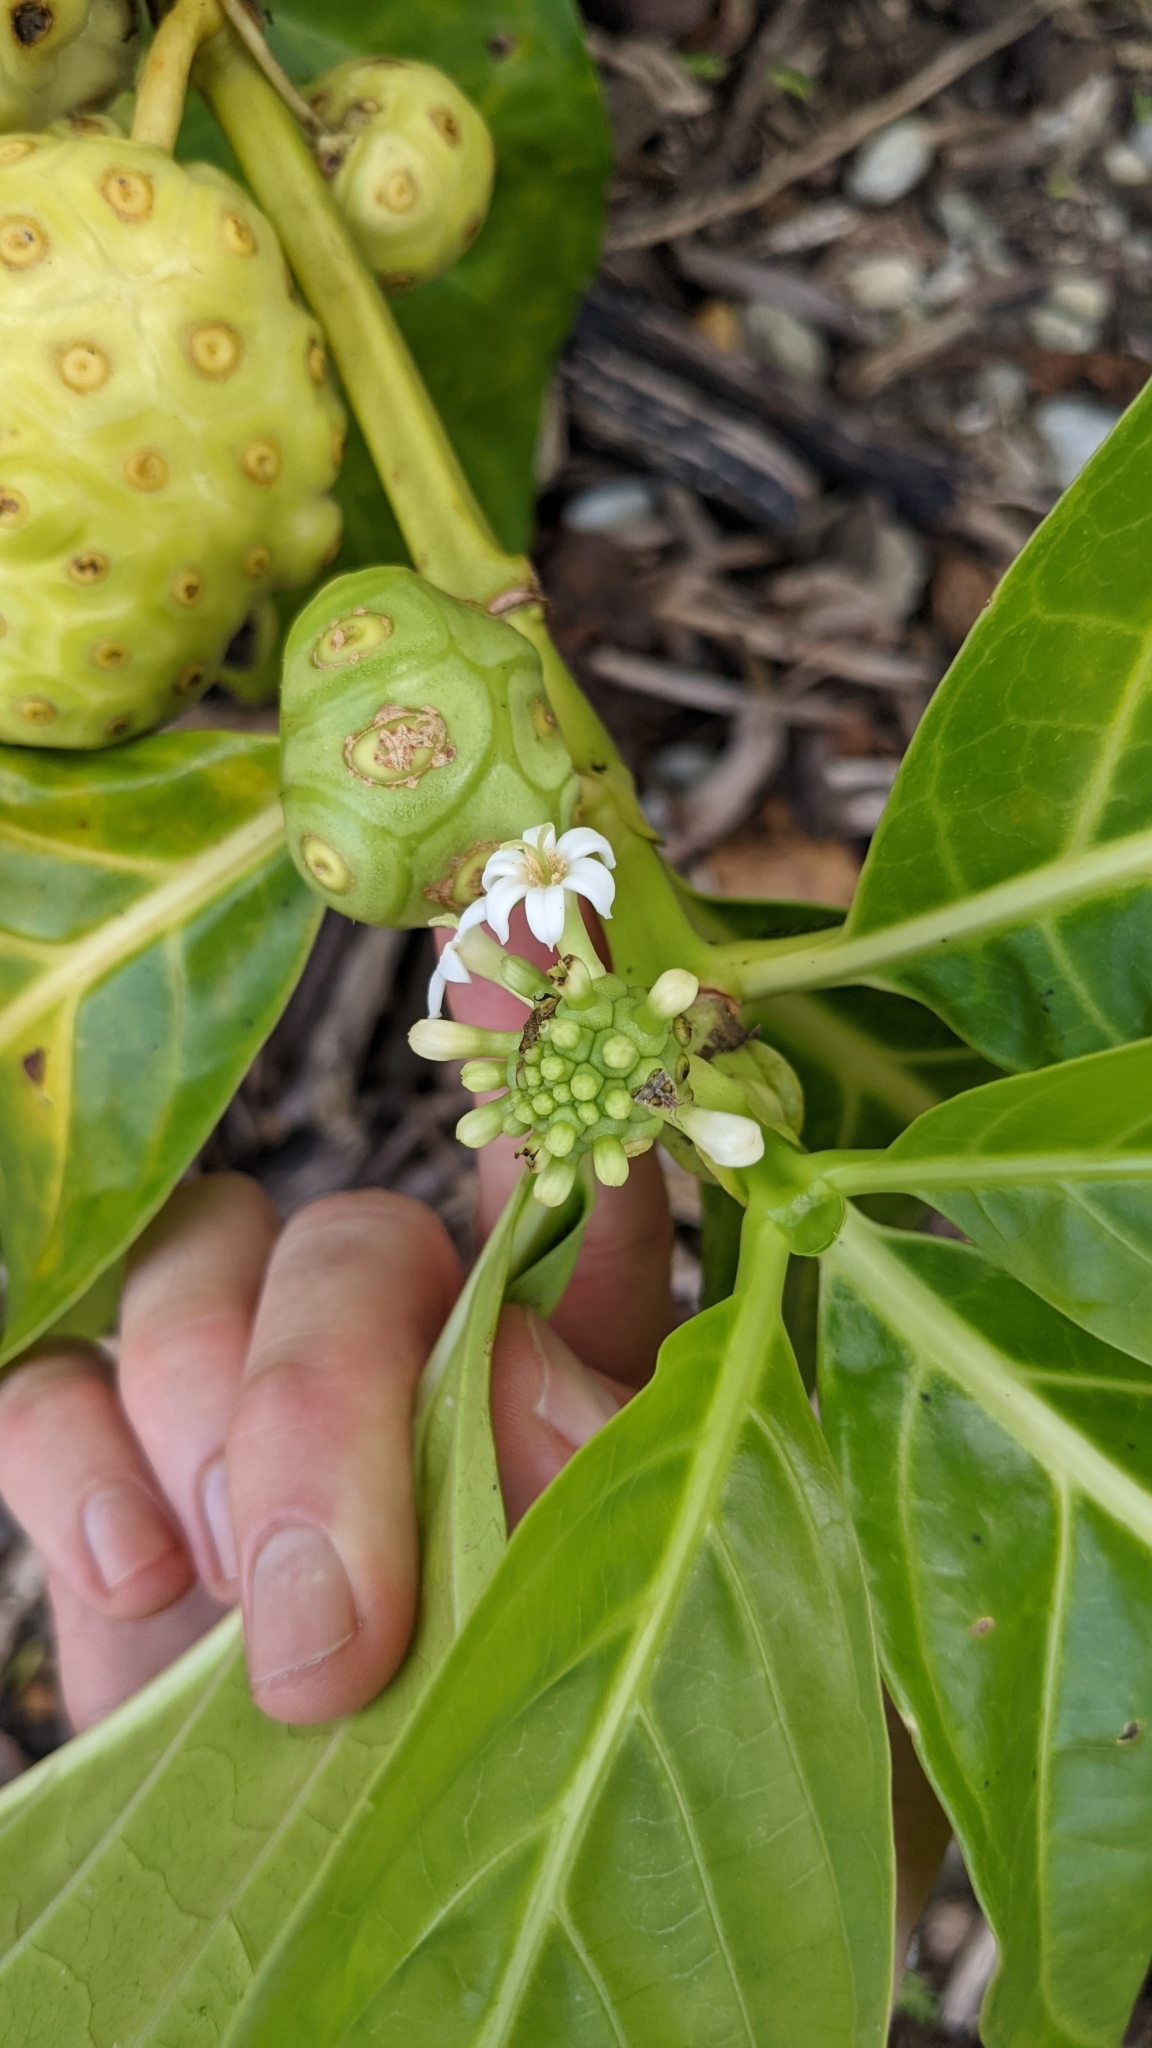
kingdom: Plantae
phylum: Tracheophyta
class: Magnoliopsida
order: Gentianales
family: Rubiaceae
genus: Morinda
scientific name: Morinda citrifolia
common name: Indian-mulberry
